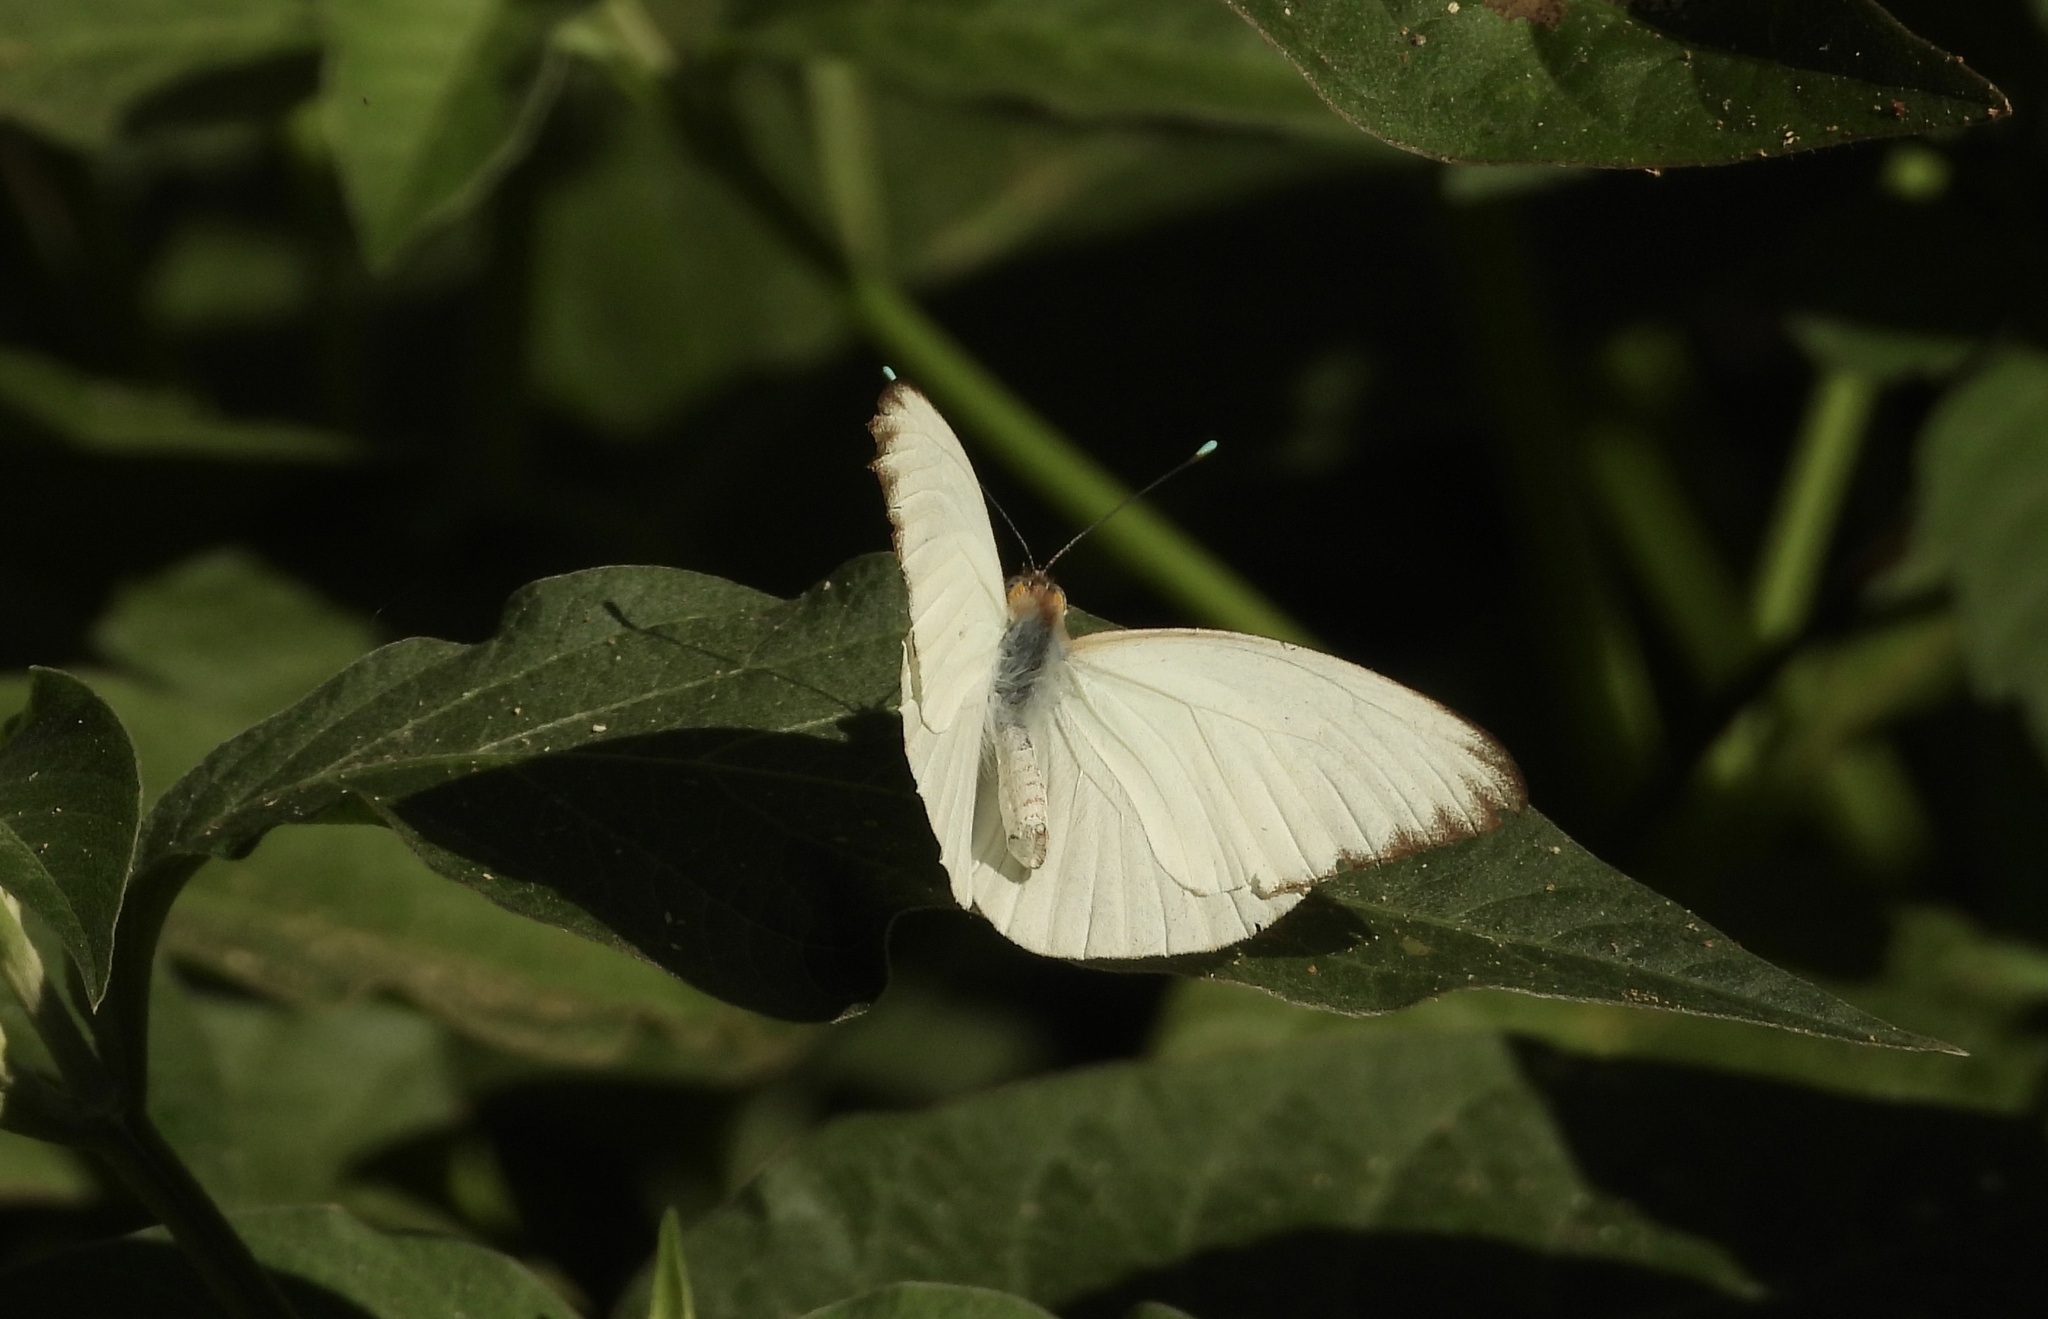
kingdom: Animalia
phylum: Arthropoda
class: Insecta
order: Lepidoptera
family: Pieridae
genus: Ascia
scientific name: Ascia monuste
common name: Great southern white
